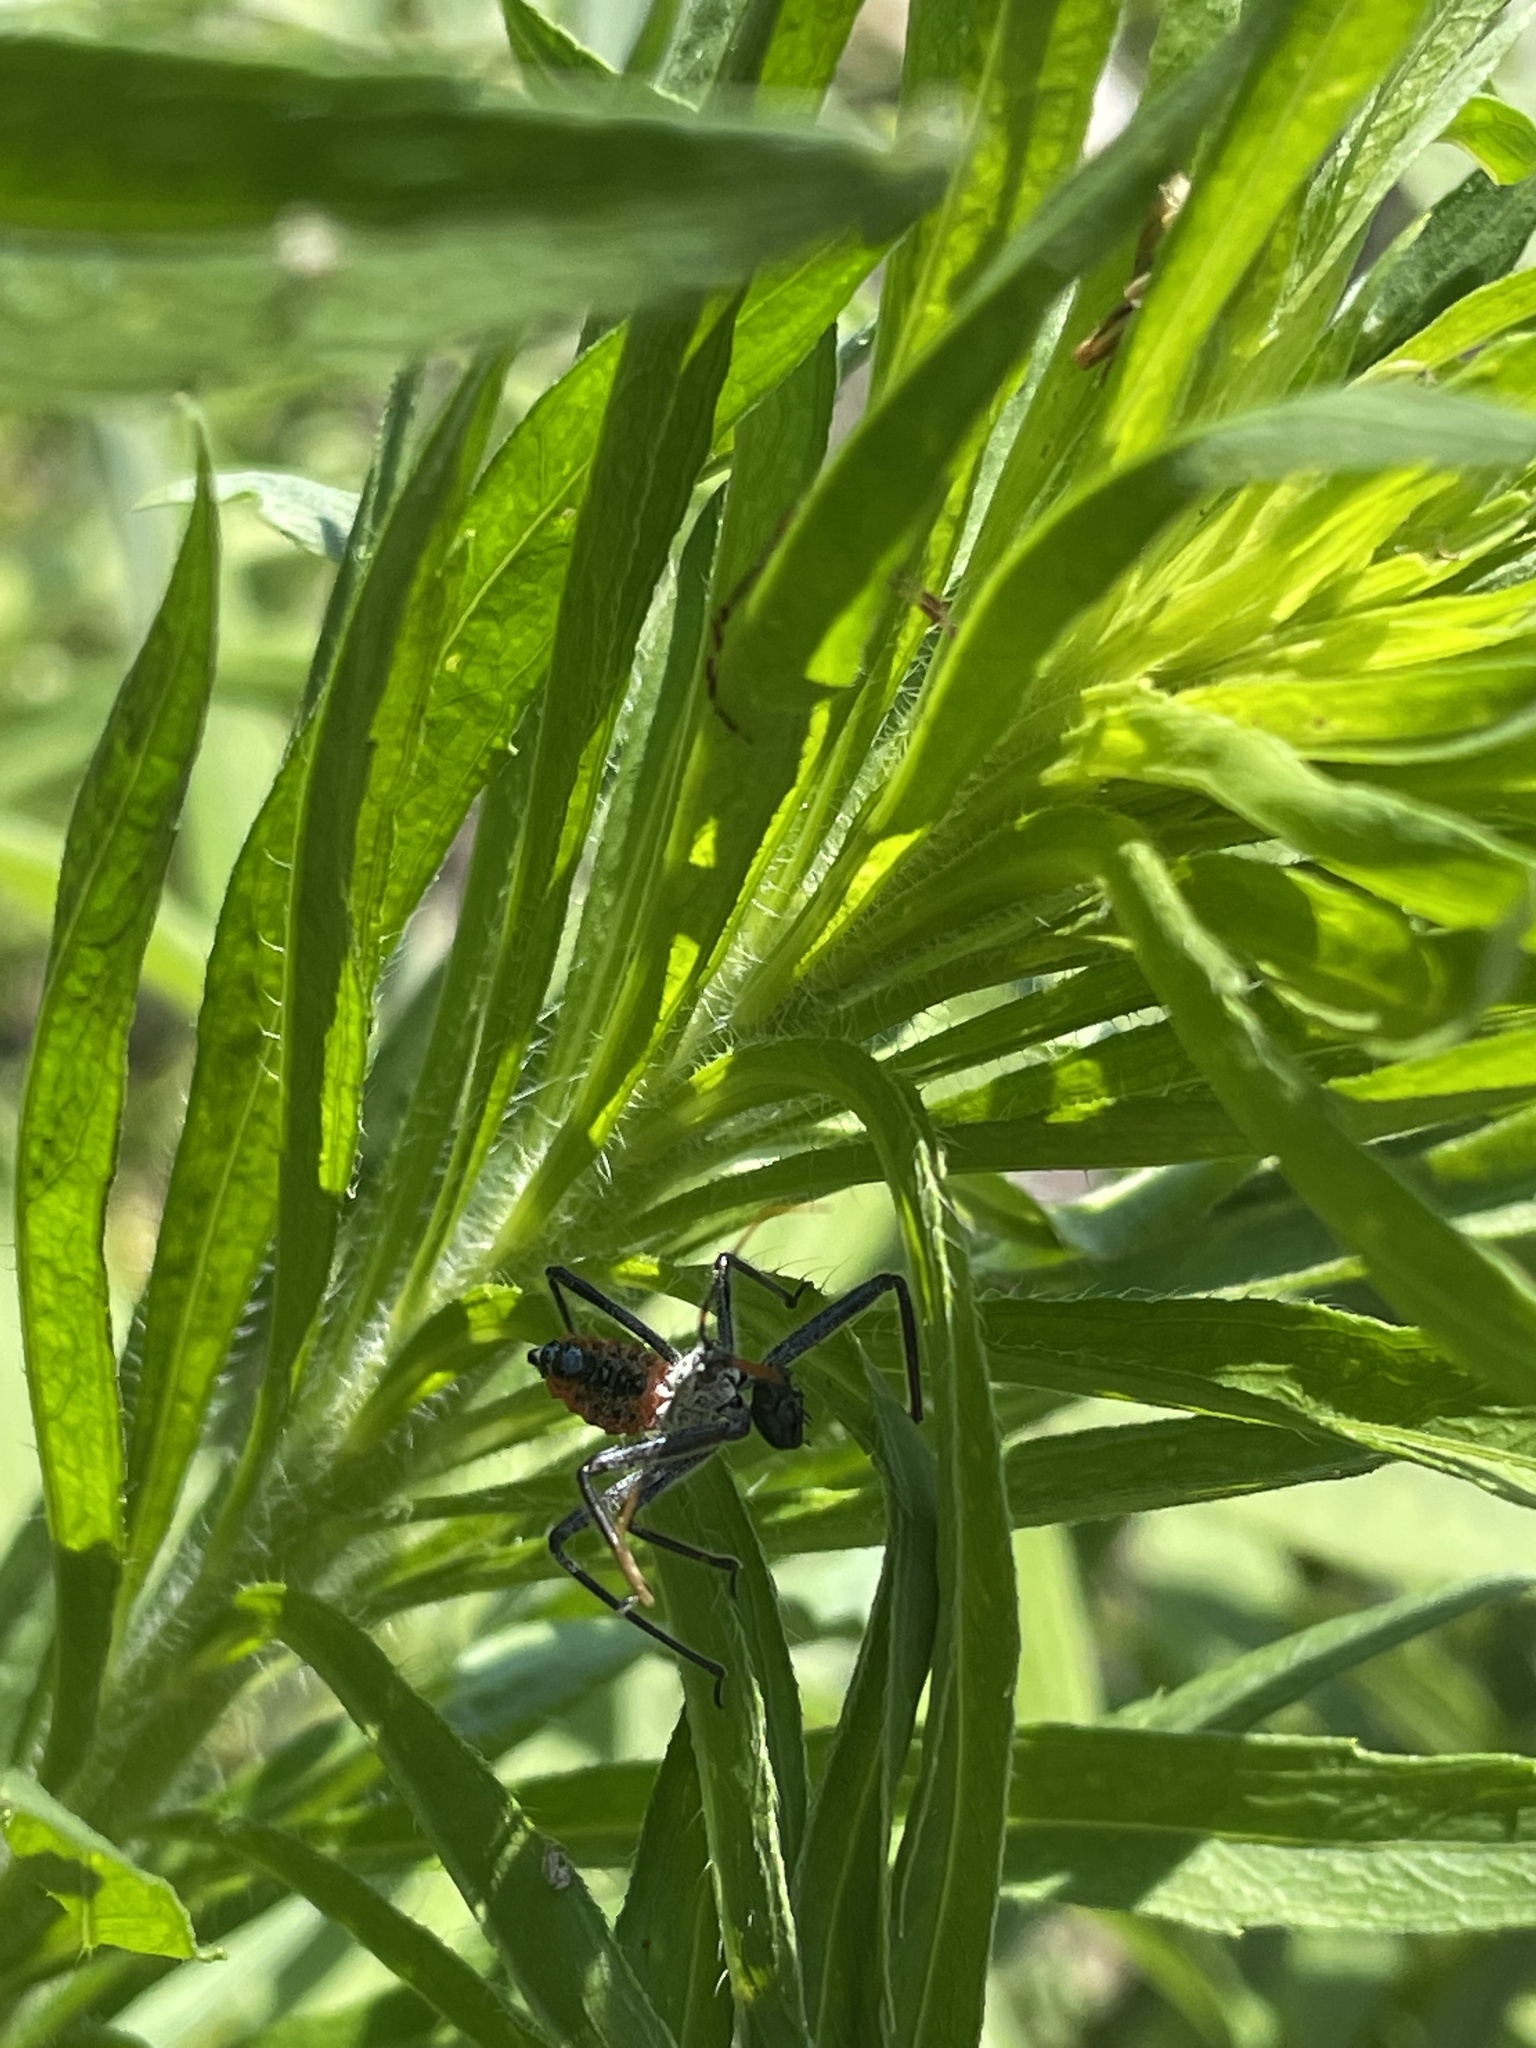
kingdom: Animalia
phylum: Arthropoda
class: Insecta
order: Hemiptera
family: Reduviidae
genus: Arilus
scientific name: Arilus cristatus
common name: North american wheel bug
